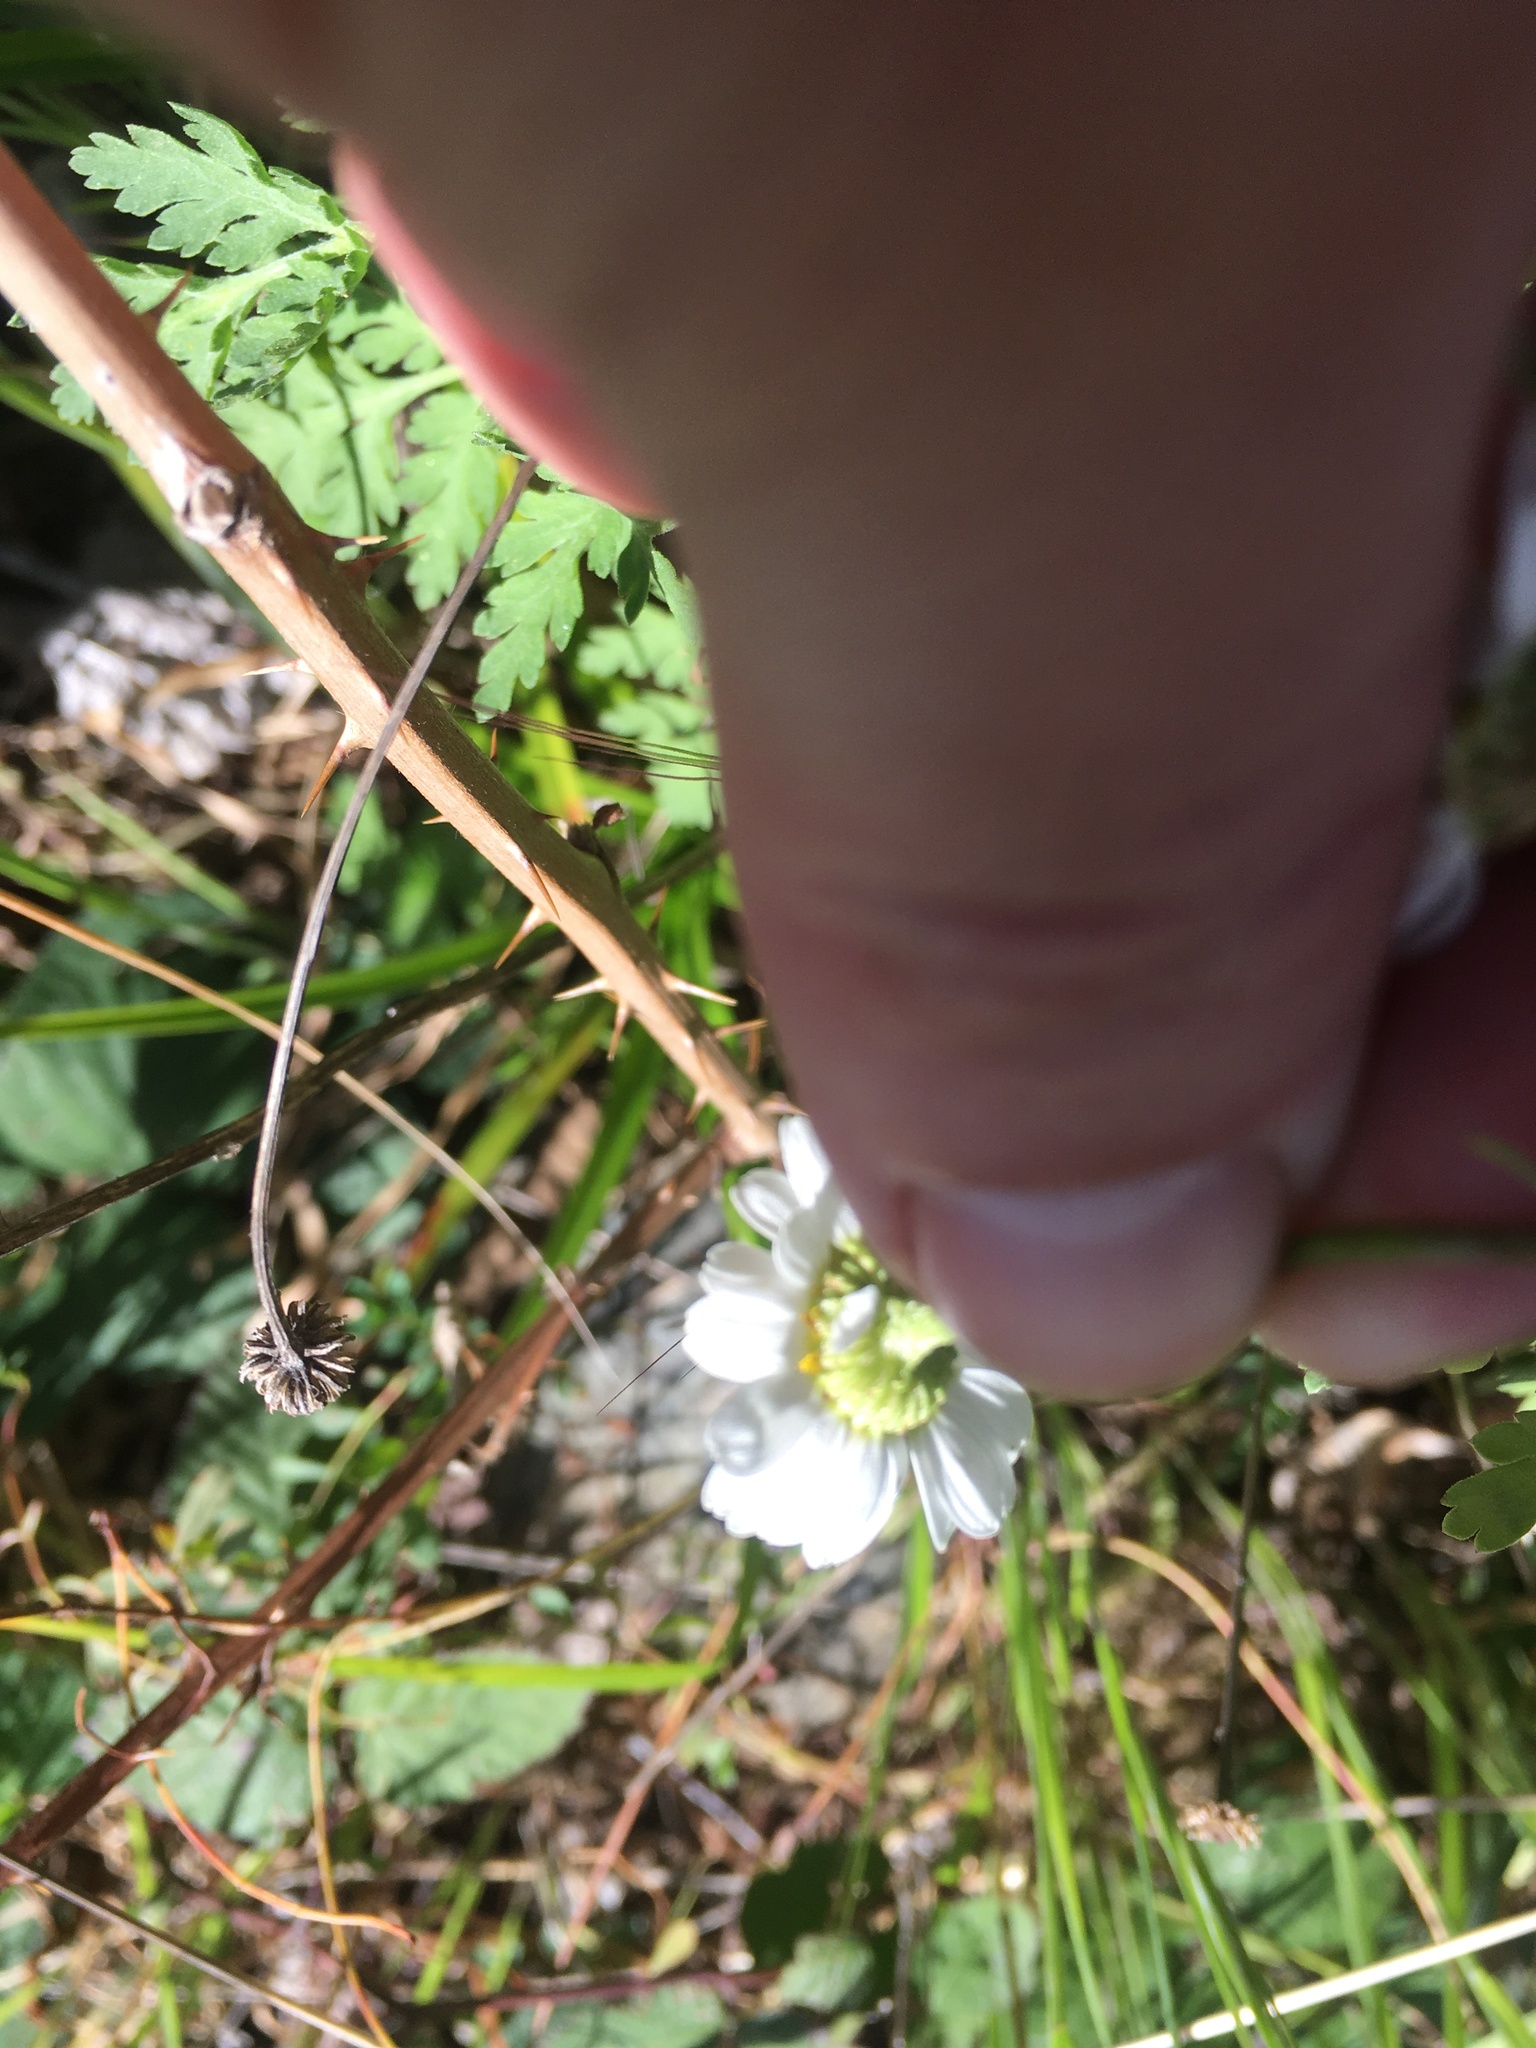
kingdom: Plantae
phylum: Tracheophyta
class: Magnoliopsida
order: Asterales
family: Asteraceae
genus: Tanacetum
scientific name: Tanacetum parthenium
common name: Feverfew
